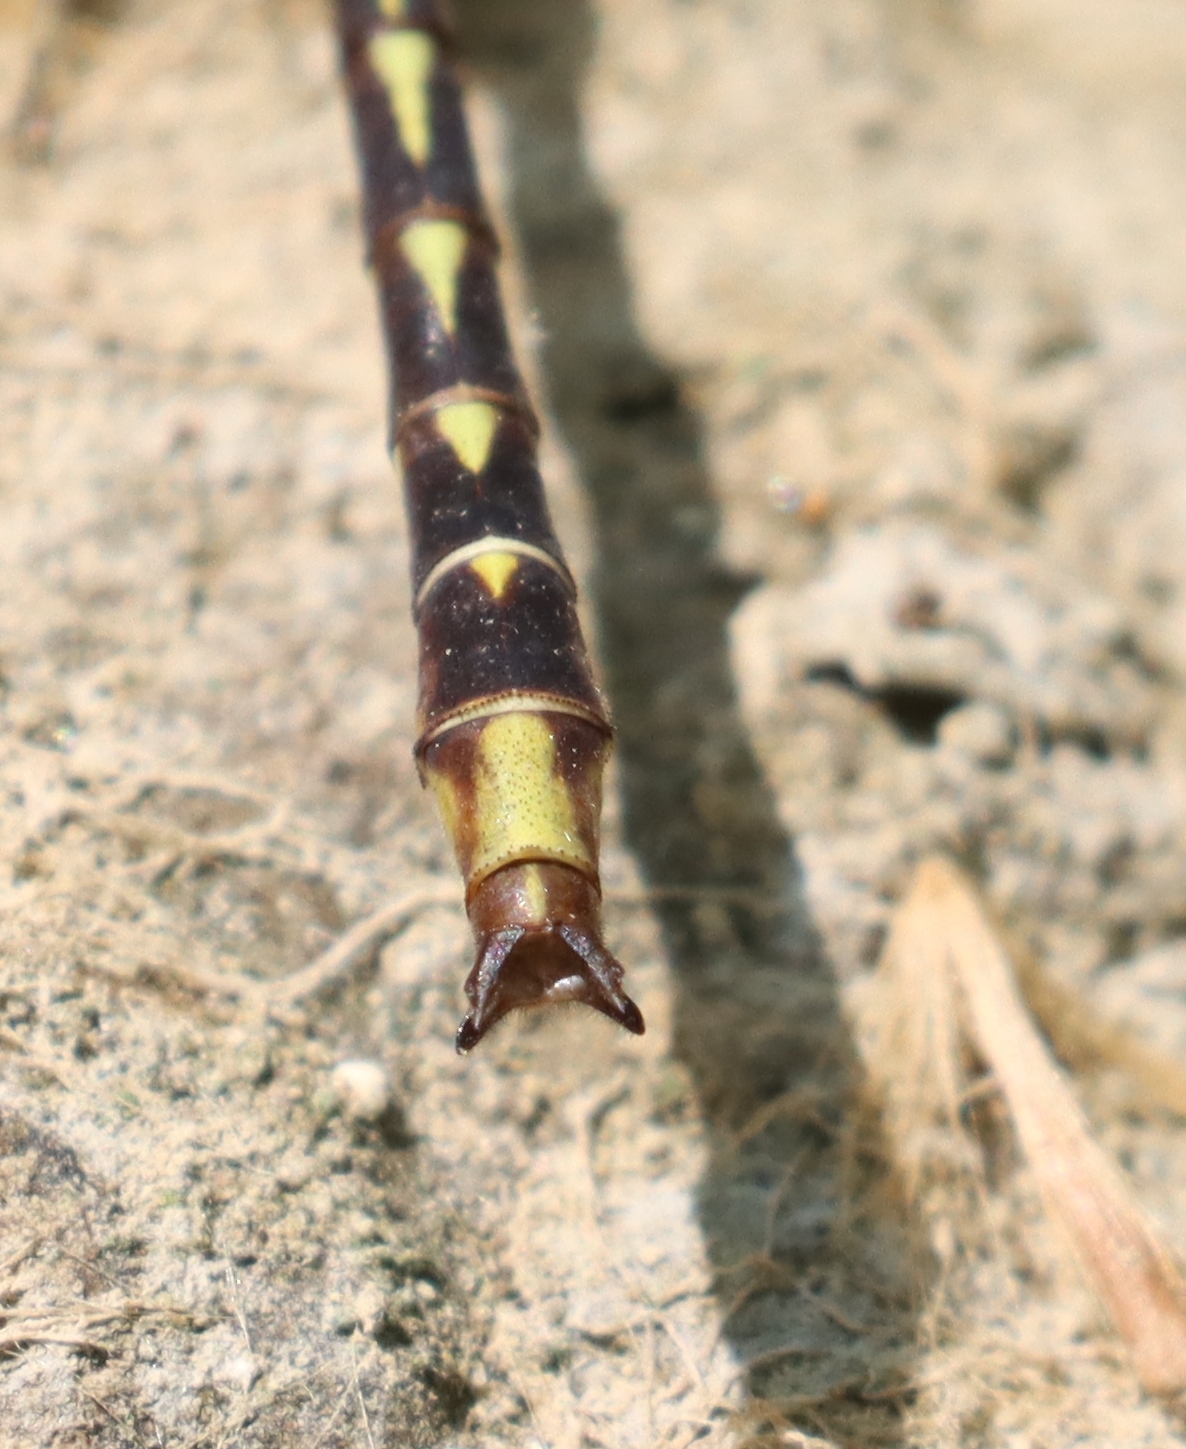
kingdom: Animalia
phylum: Arthropoda
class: Insecta
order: Odonata
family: Gomphidae
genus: Phanogomphus
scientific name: Phanogomphus lividus
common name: Ashy clubtail
